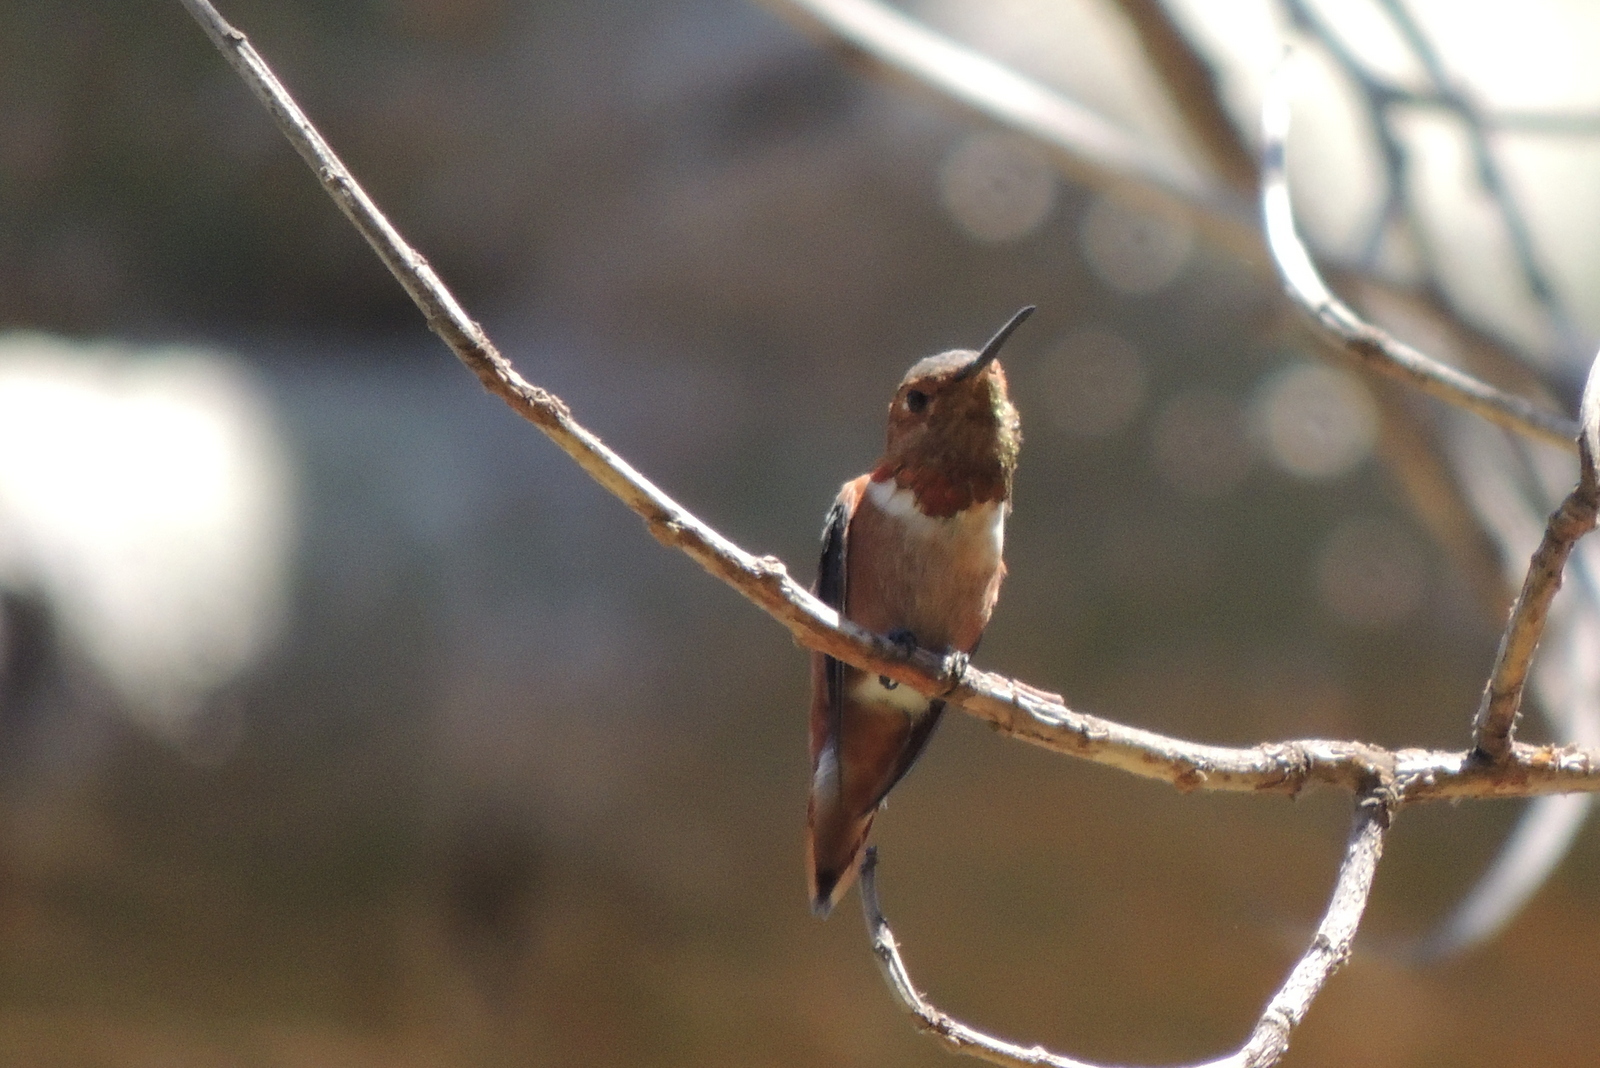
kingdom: Animalia
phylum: Chordata
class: Aves
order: Apodiformes
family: Trochilidae
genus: Selasphorus
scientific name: Selasphorus sasin
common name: Allen's hummingbird
